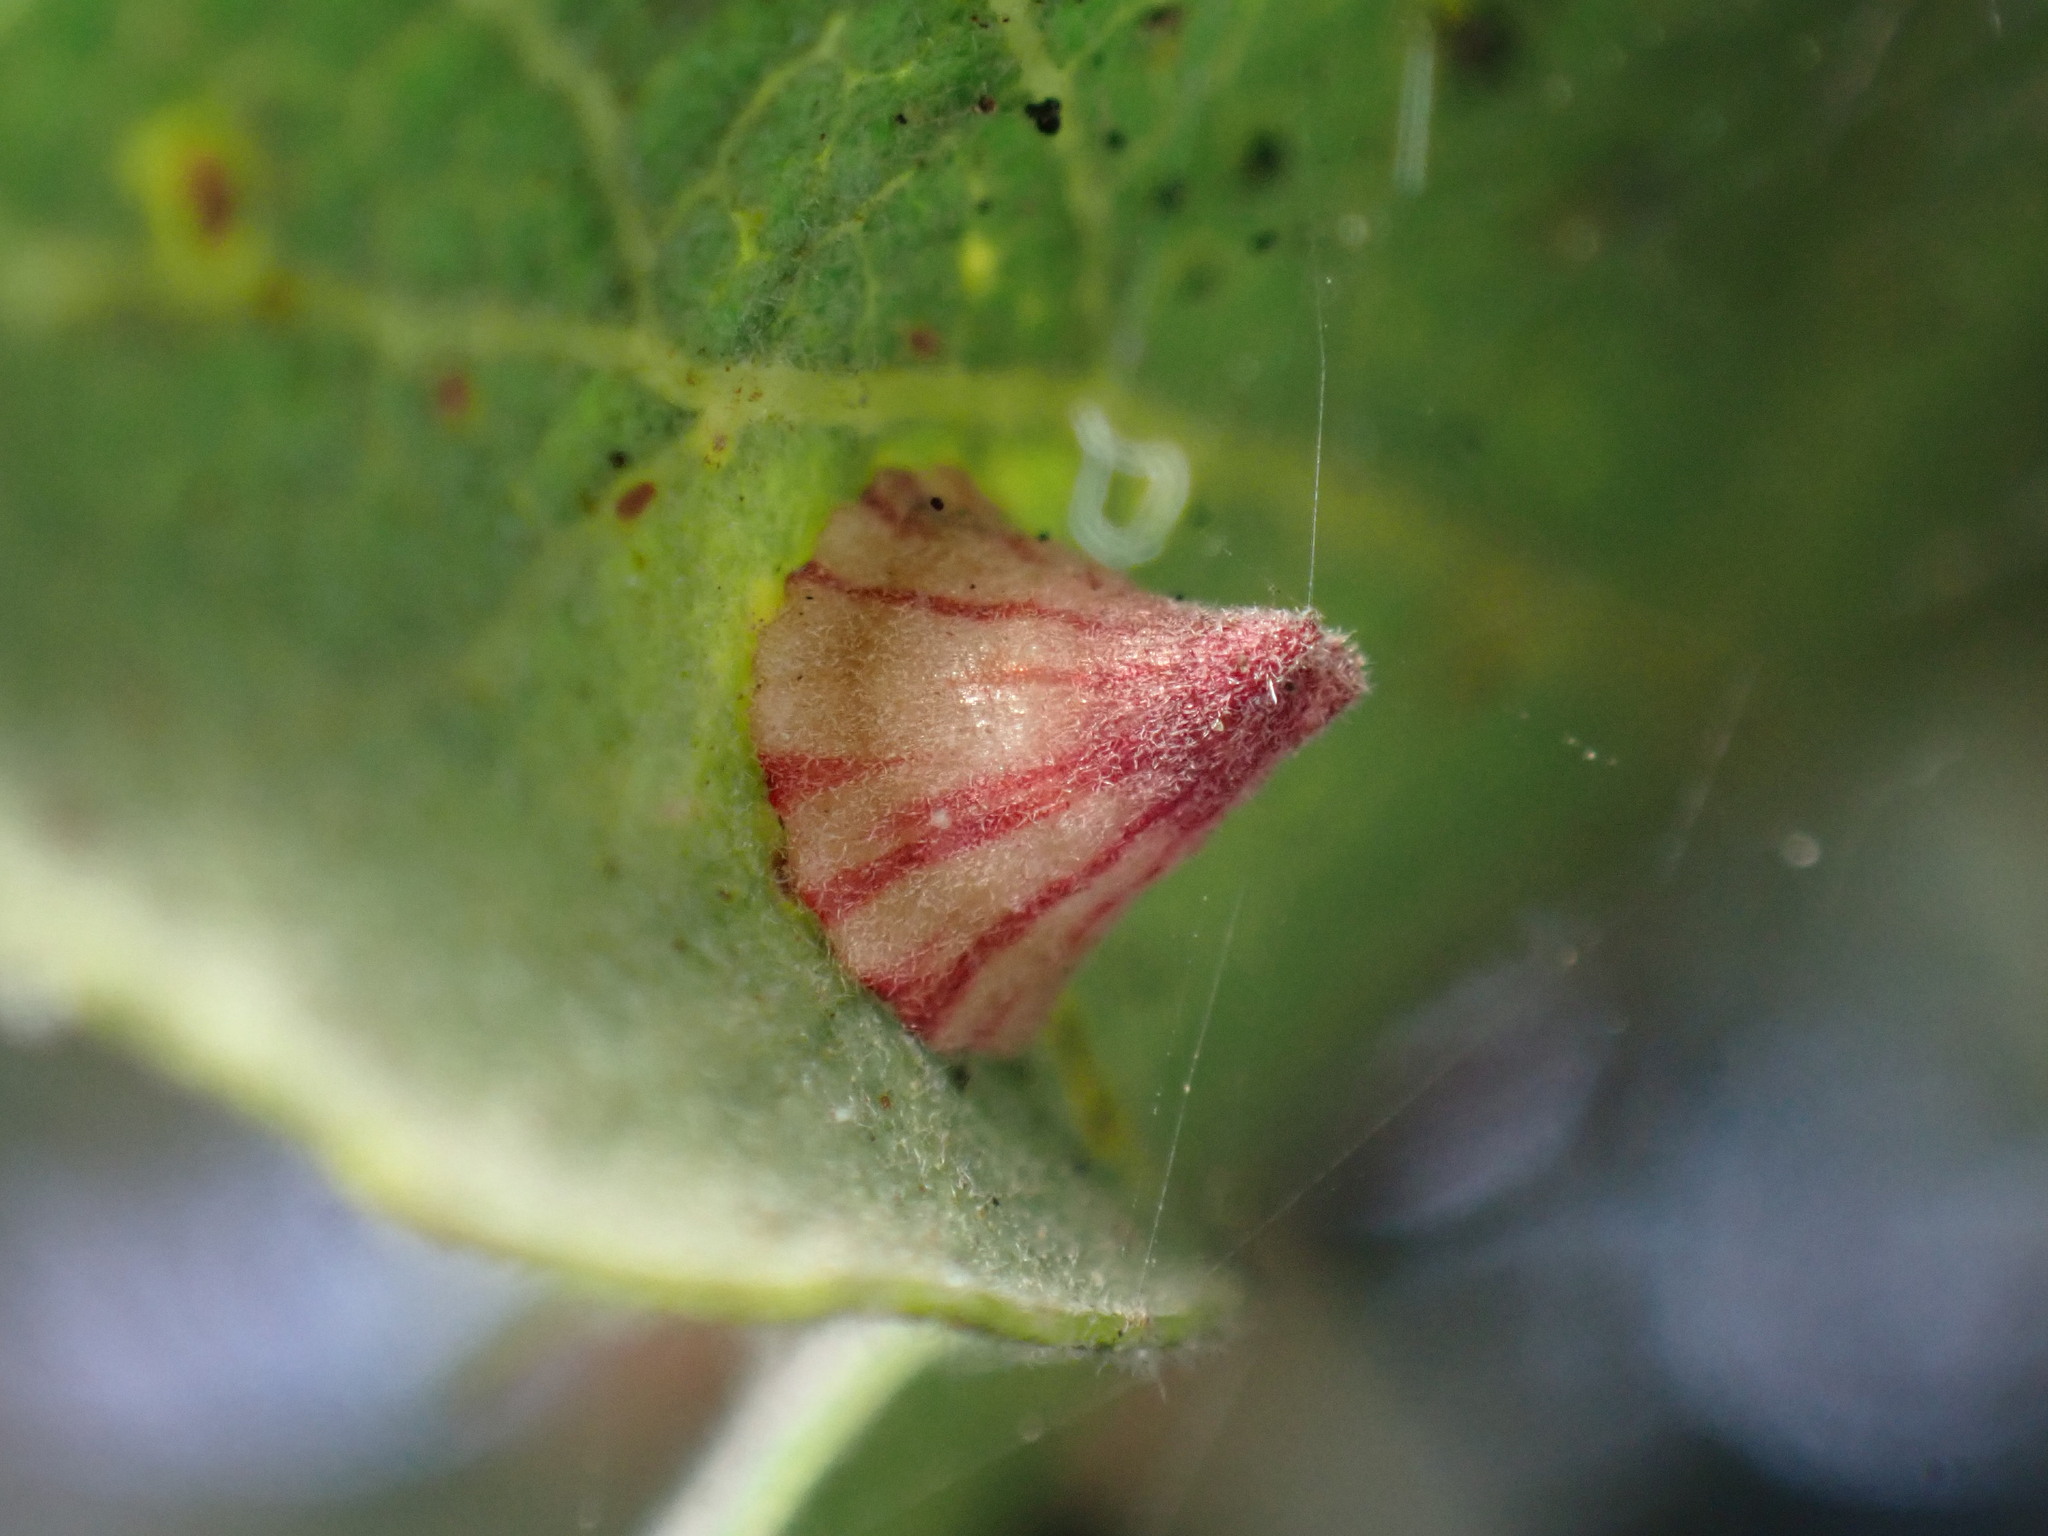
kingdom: Animalia
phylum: Arthropoda
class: Insecta
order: Hymenoptera
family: Cynipidae
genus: Andricus
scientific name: Andricus
